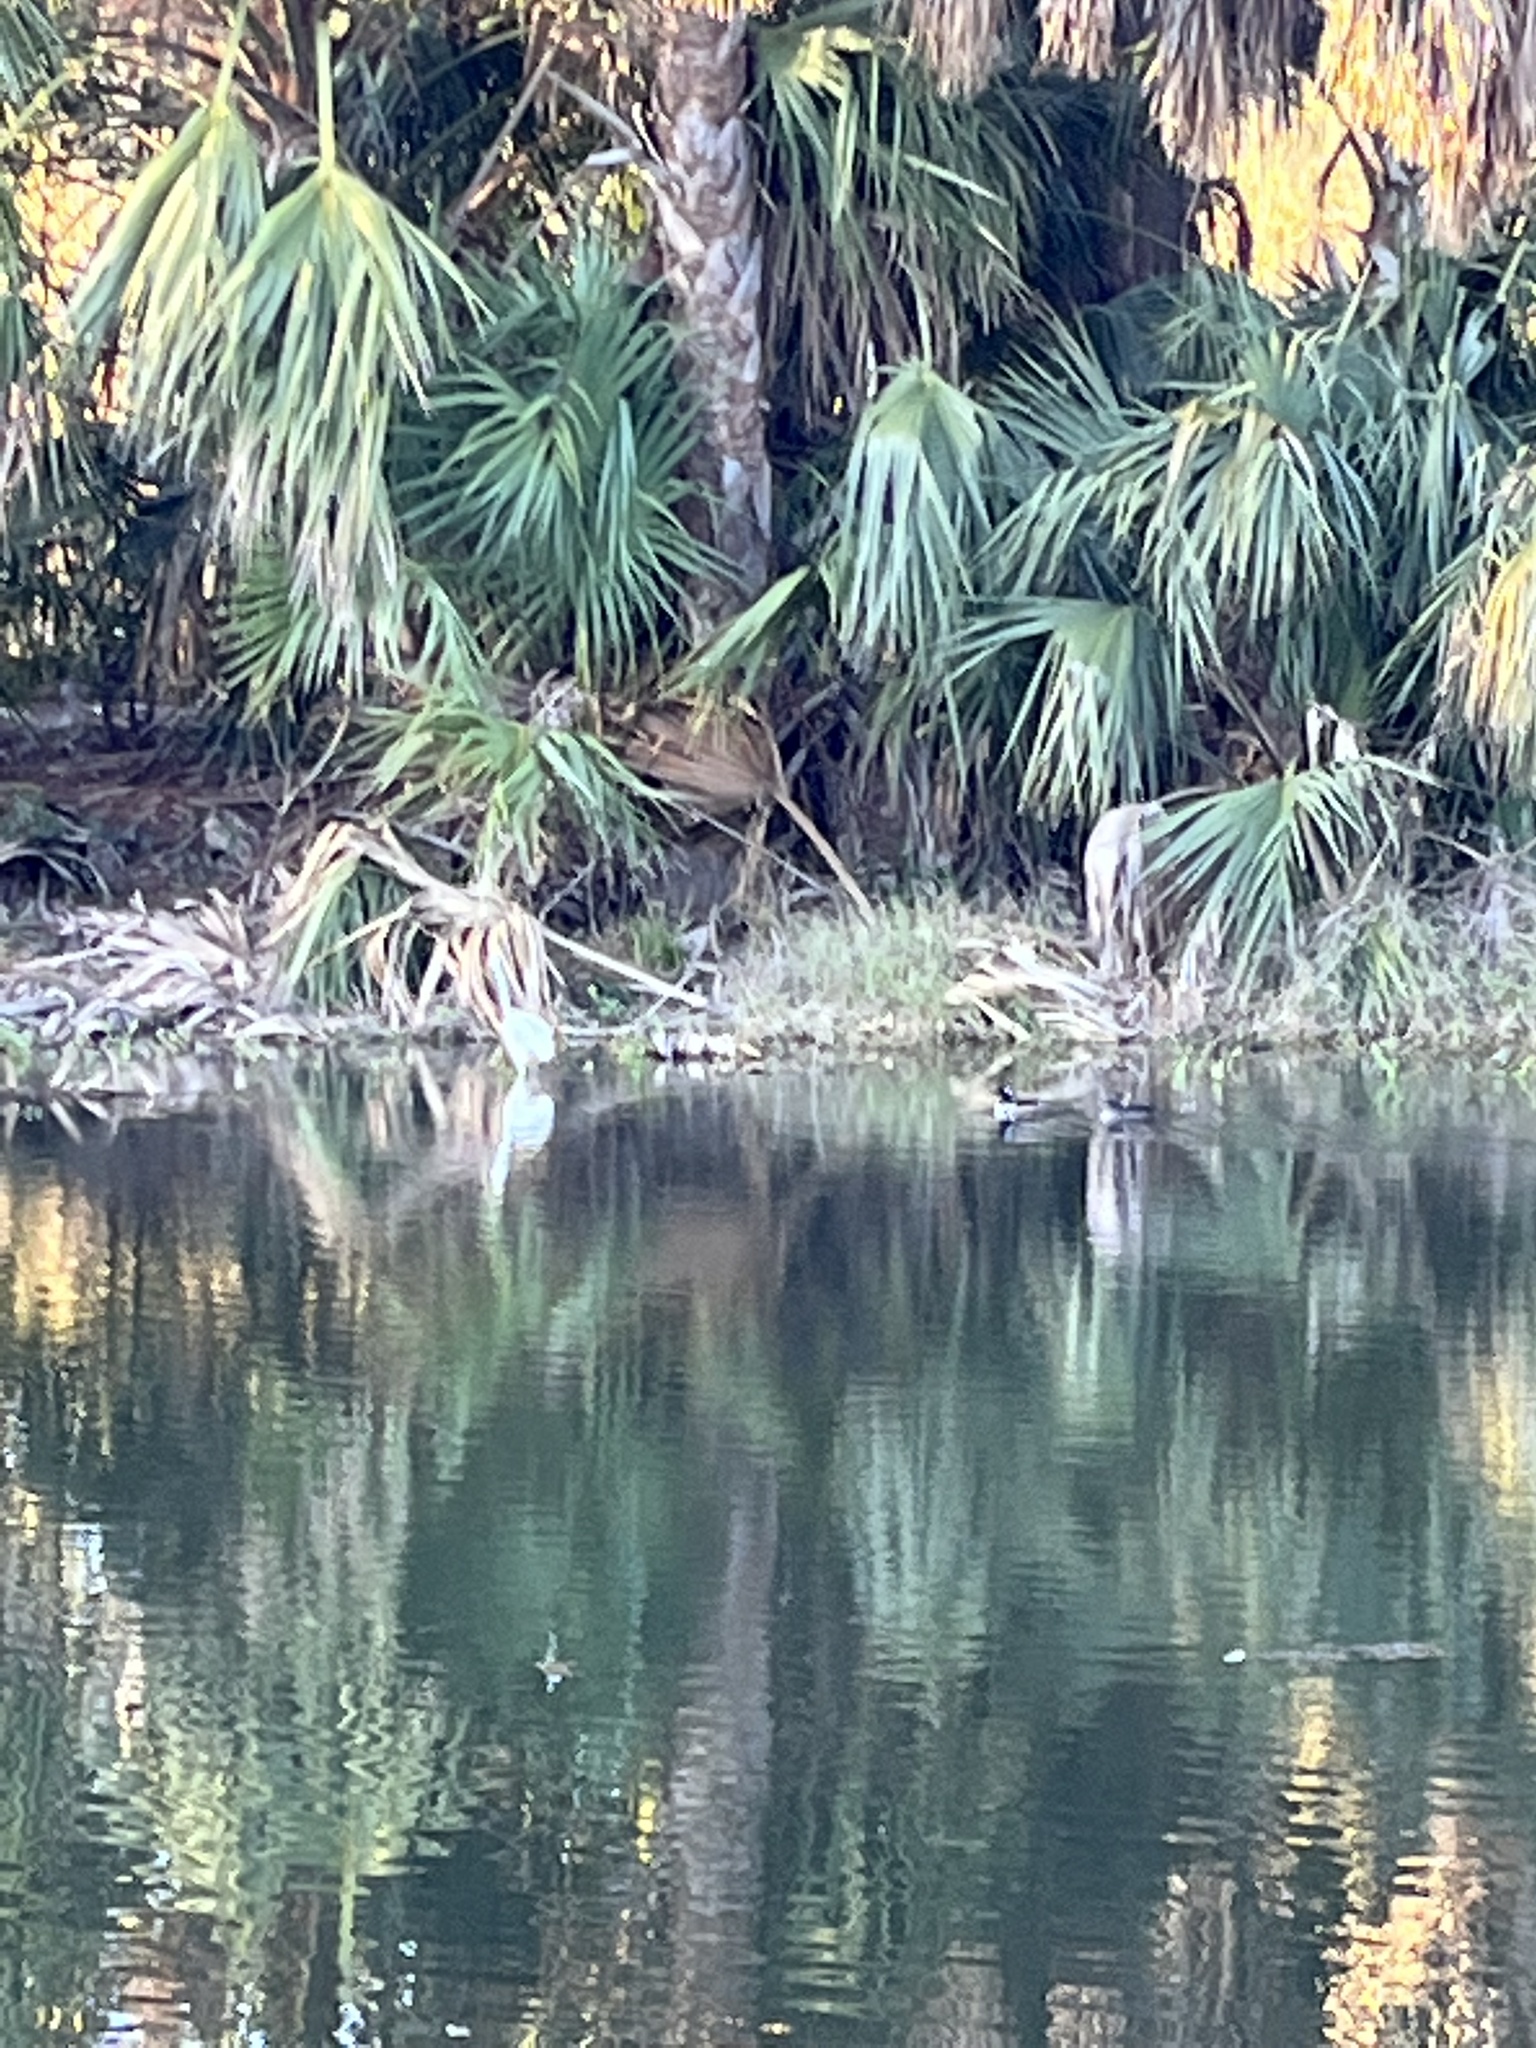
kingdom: Animalia
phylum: Chordata
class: Aves
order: Anseriformes
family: Anatidae
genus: Lophodytes
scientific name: Lophodytes cucullatus
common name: Hooded merganser
